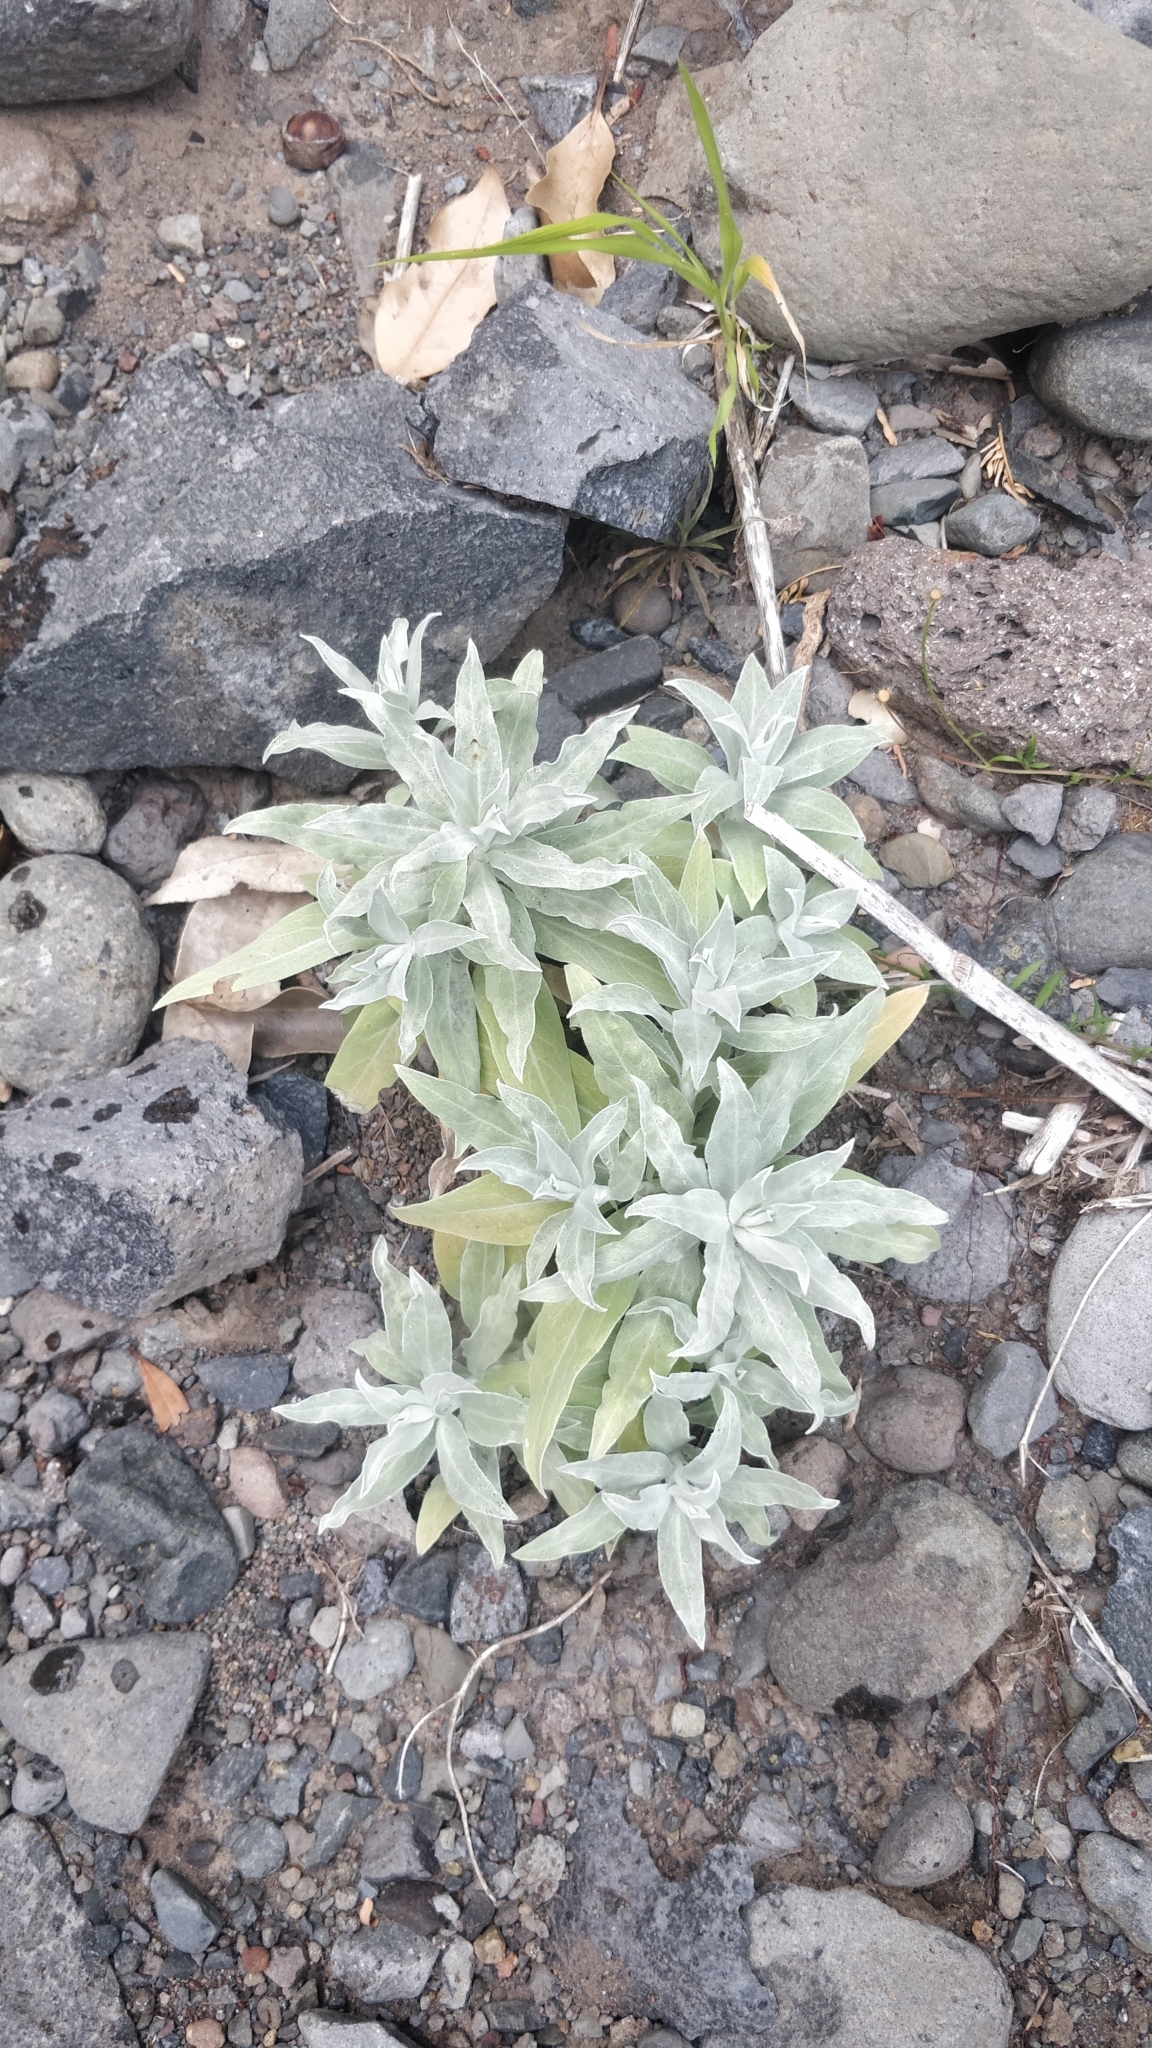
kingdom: Plantae
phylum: Tracheophyta
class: Magnoliopsida
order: Asterales
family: Asteraceae
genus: Helichrysum
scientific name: Helichrysum melaleucum
